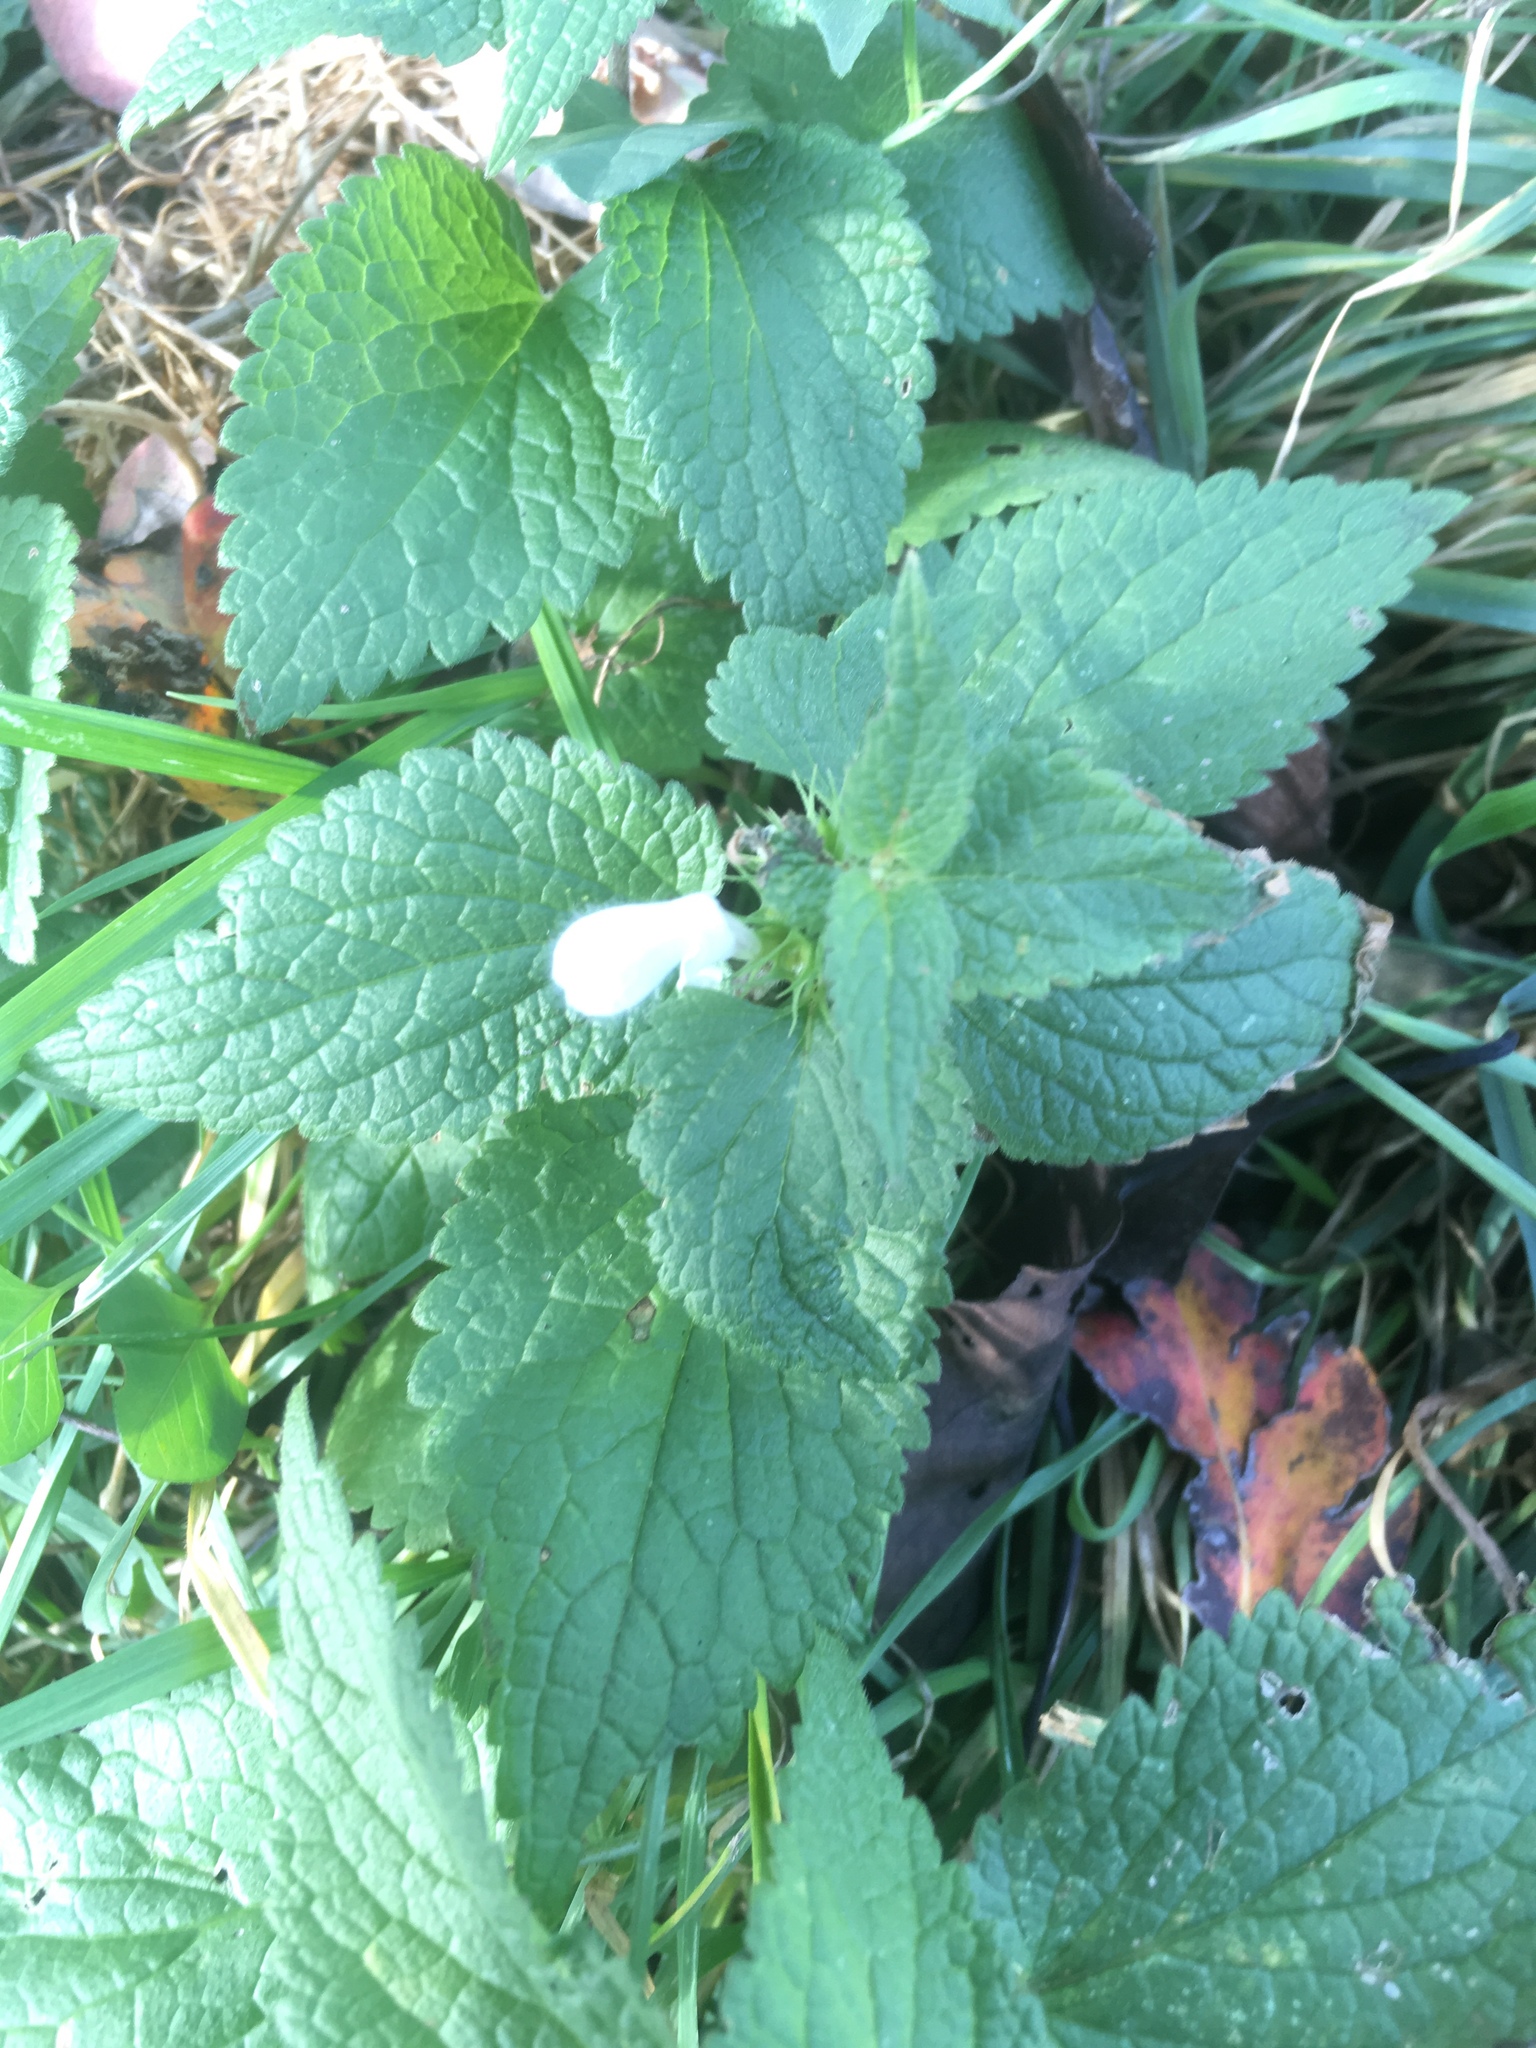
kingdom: Plantae
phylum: Tracheophyta
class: Magnoliopsida
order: Lamiales
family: Lamiaceae
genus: Lamium
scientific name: Lamium album
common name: White dead-nettle
